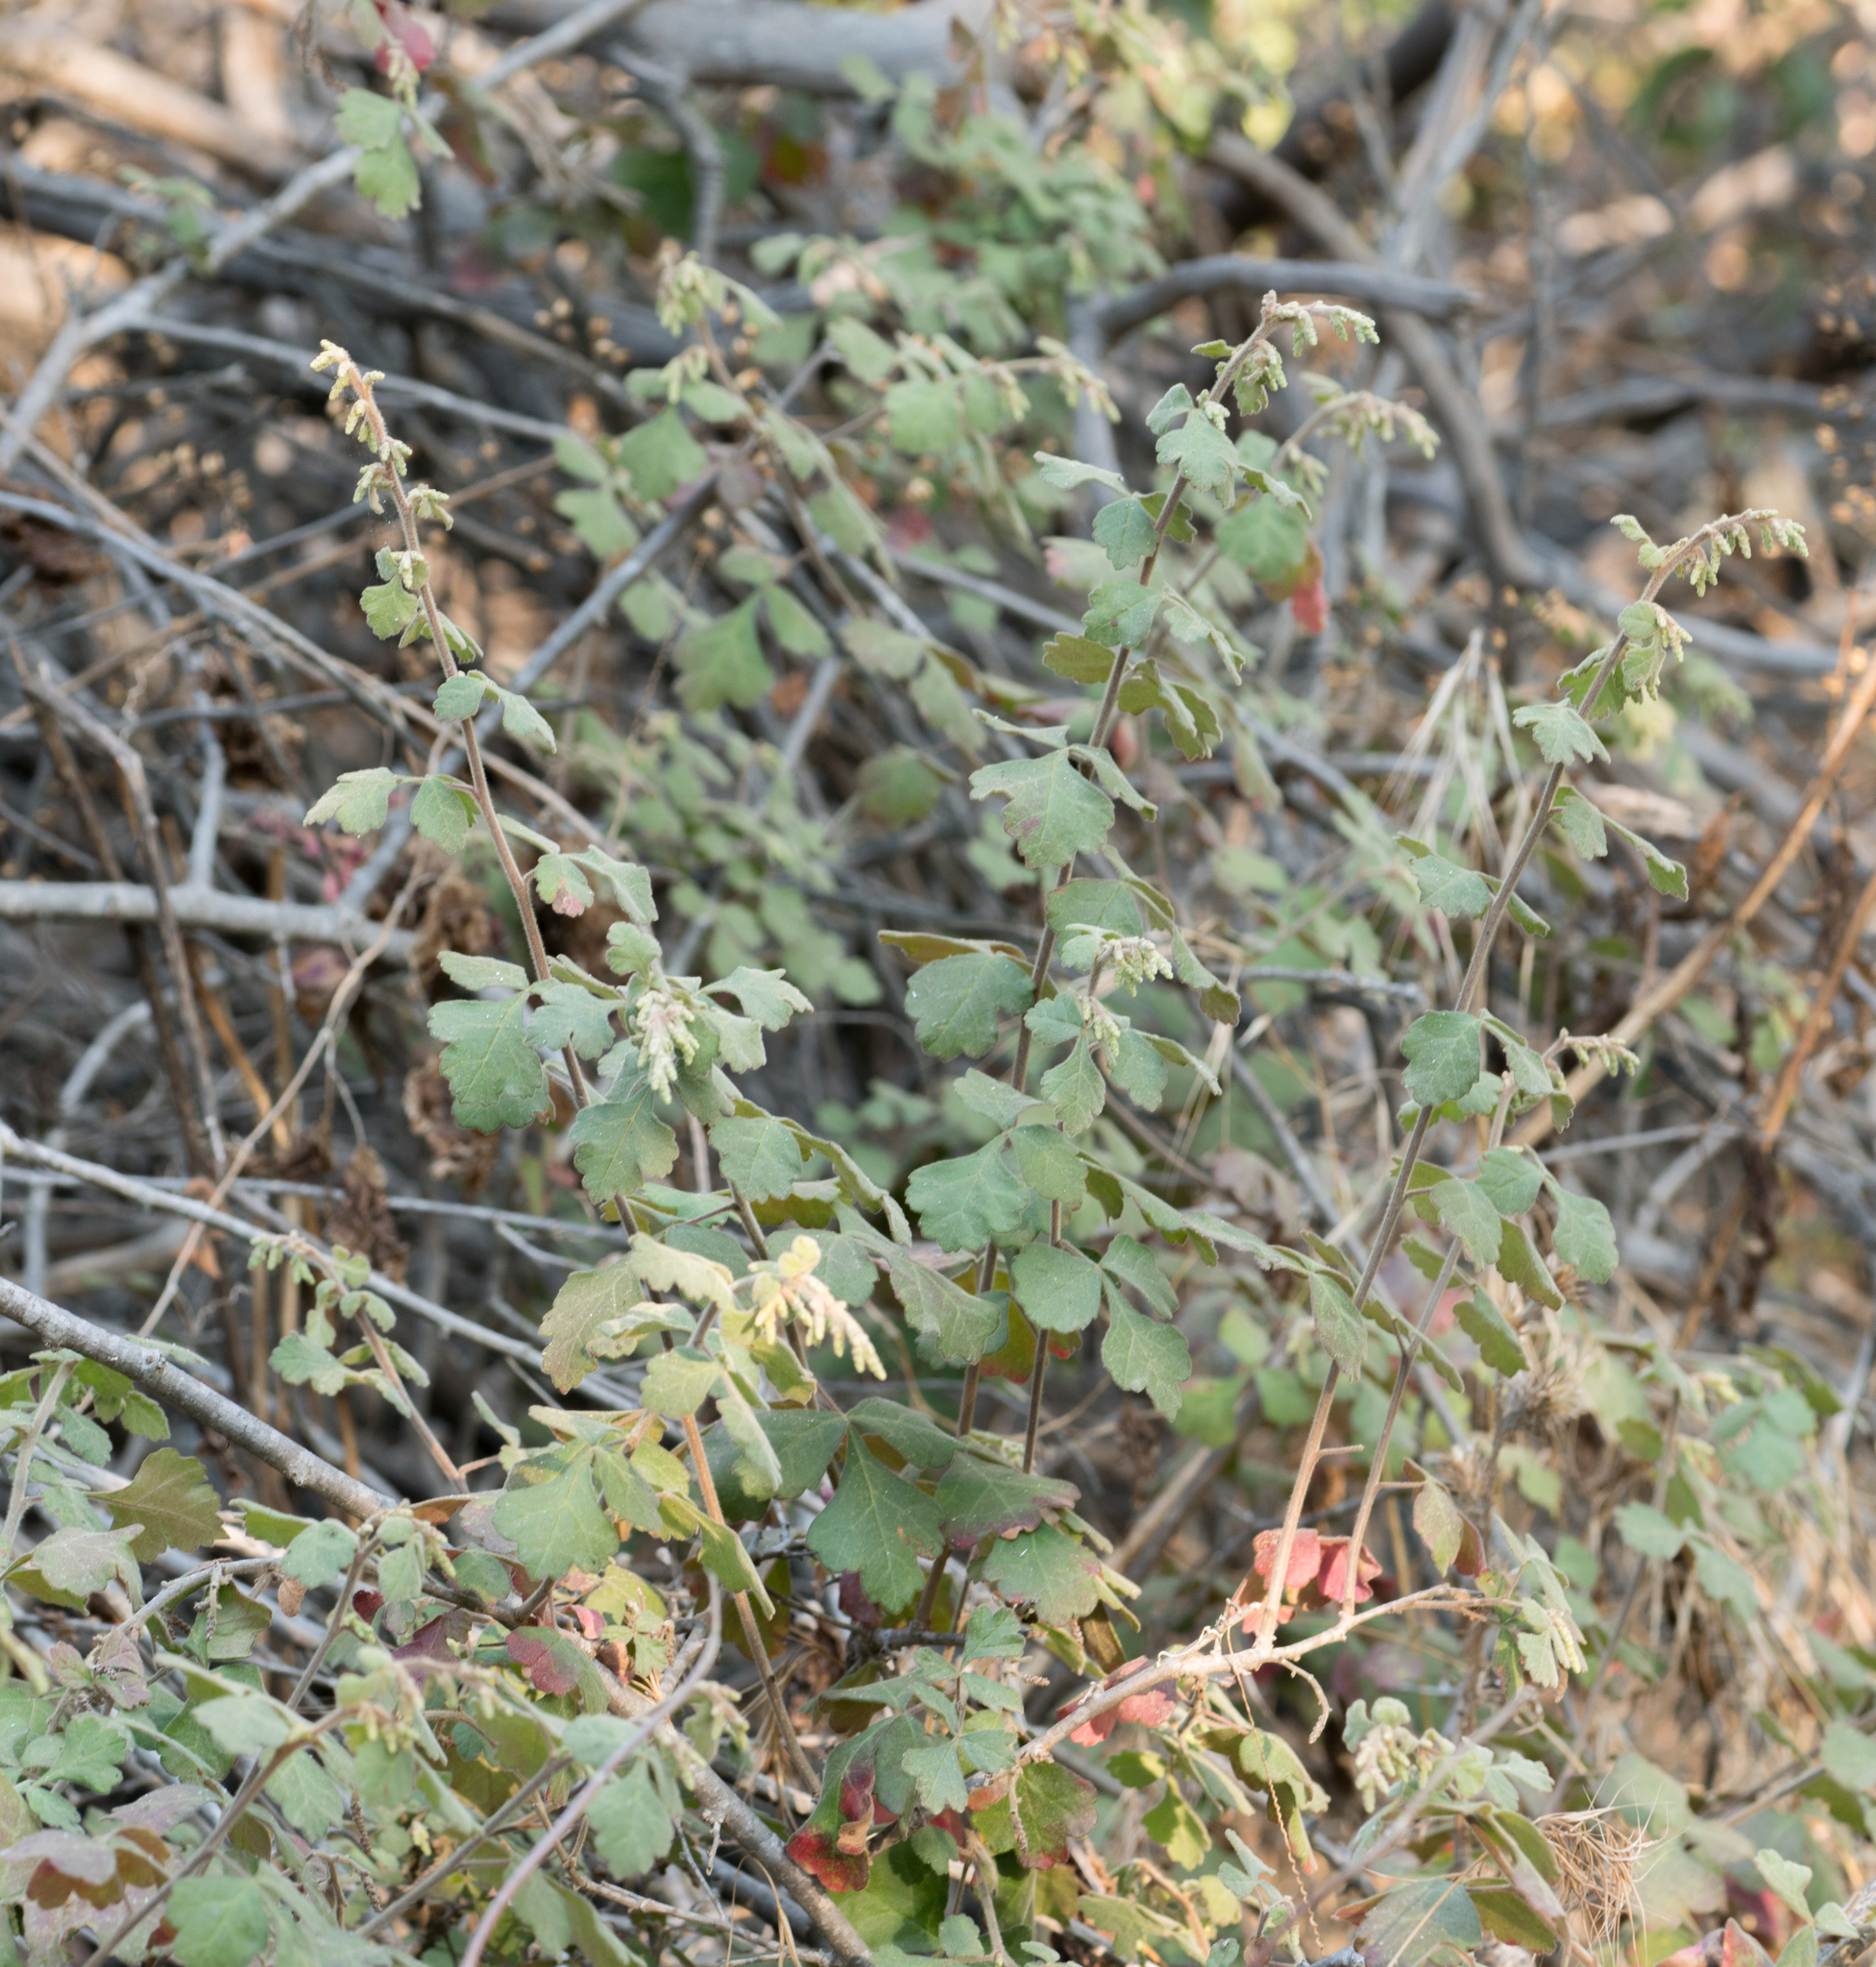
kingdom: Plantae
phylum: Tracheophyta
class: Magnoliopsida
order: Sapindales
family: Anacardiaceae
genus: Rhus
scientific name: Rhus aromatica
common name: Aromatic sumac
